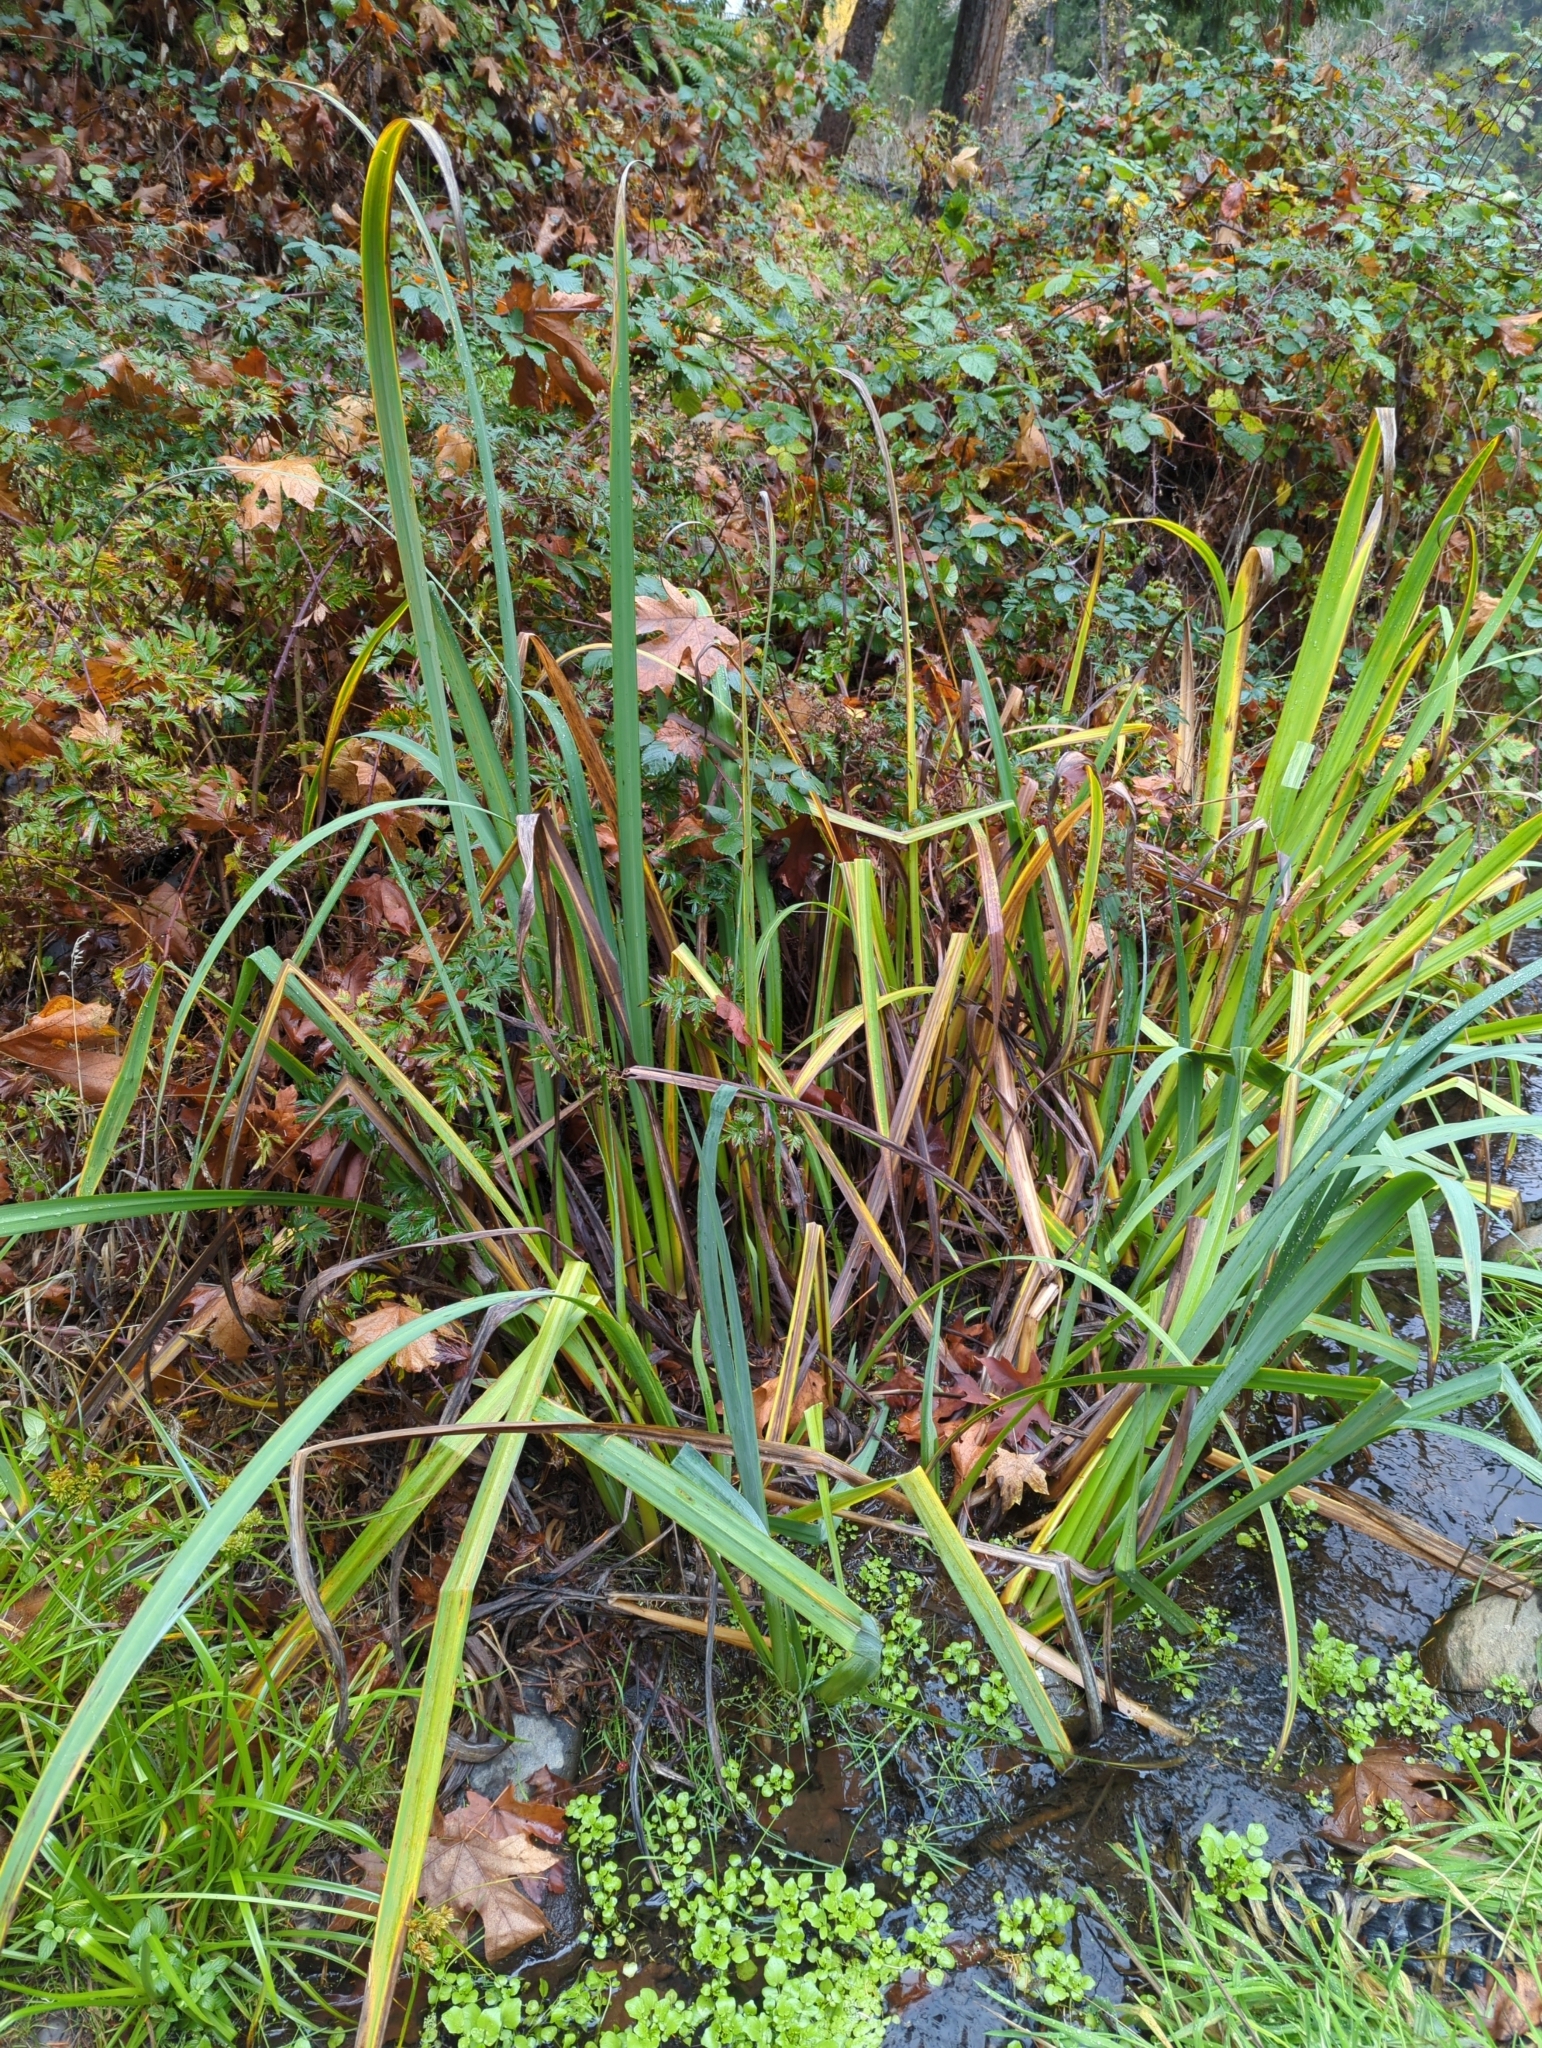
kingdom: Plantae
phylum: Tracheophyta
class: Liliopsida
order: Asparagales
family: Iridaceae
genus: Iris
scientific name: Iris pseudacorus
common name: Yellow flag
